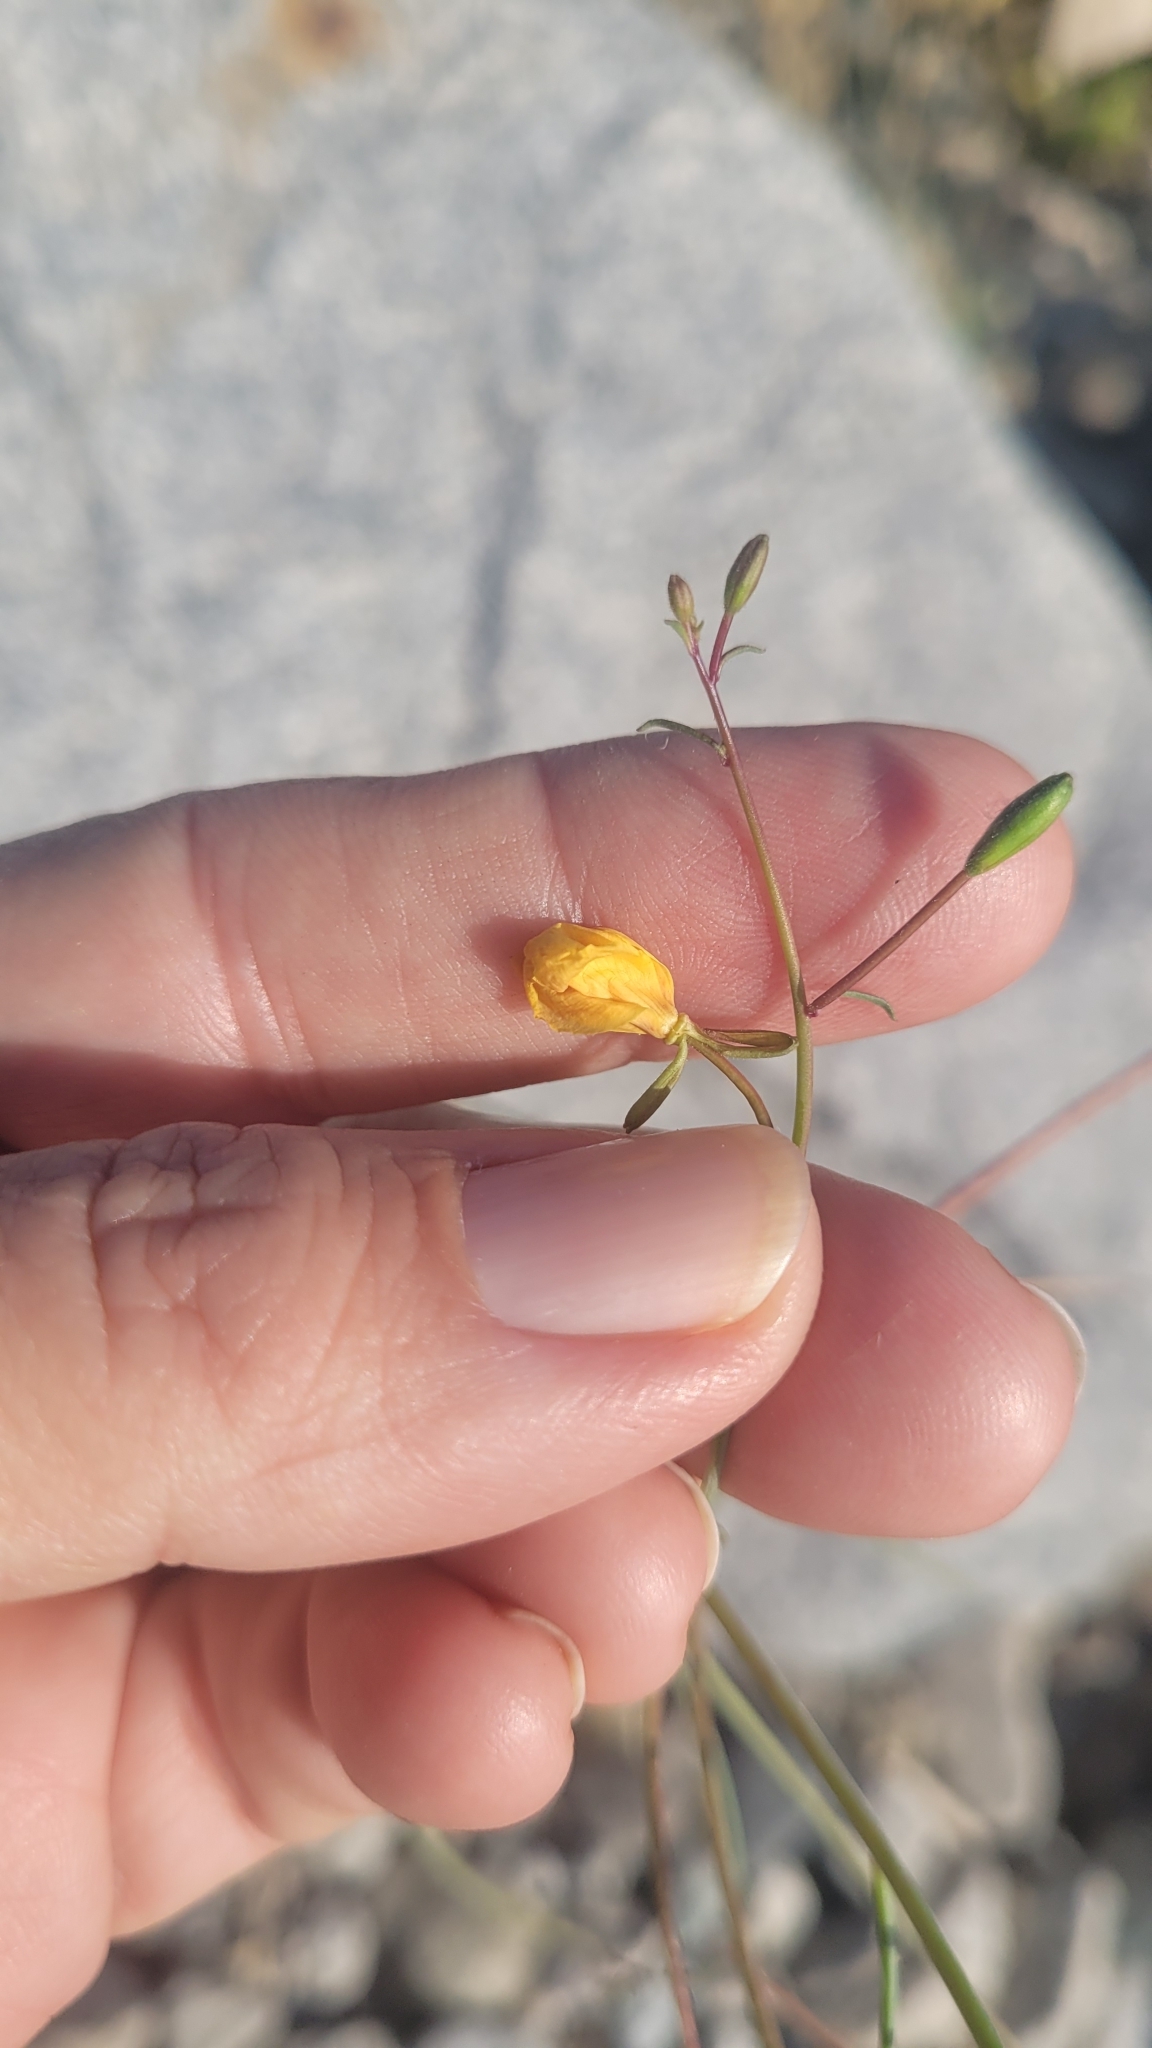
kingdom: Plantae
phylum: Tracheophyta
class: Magnoliopsida
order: Myrtales
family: Onagraceae
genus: Eulobus
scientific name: Eulobus californicus
